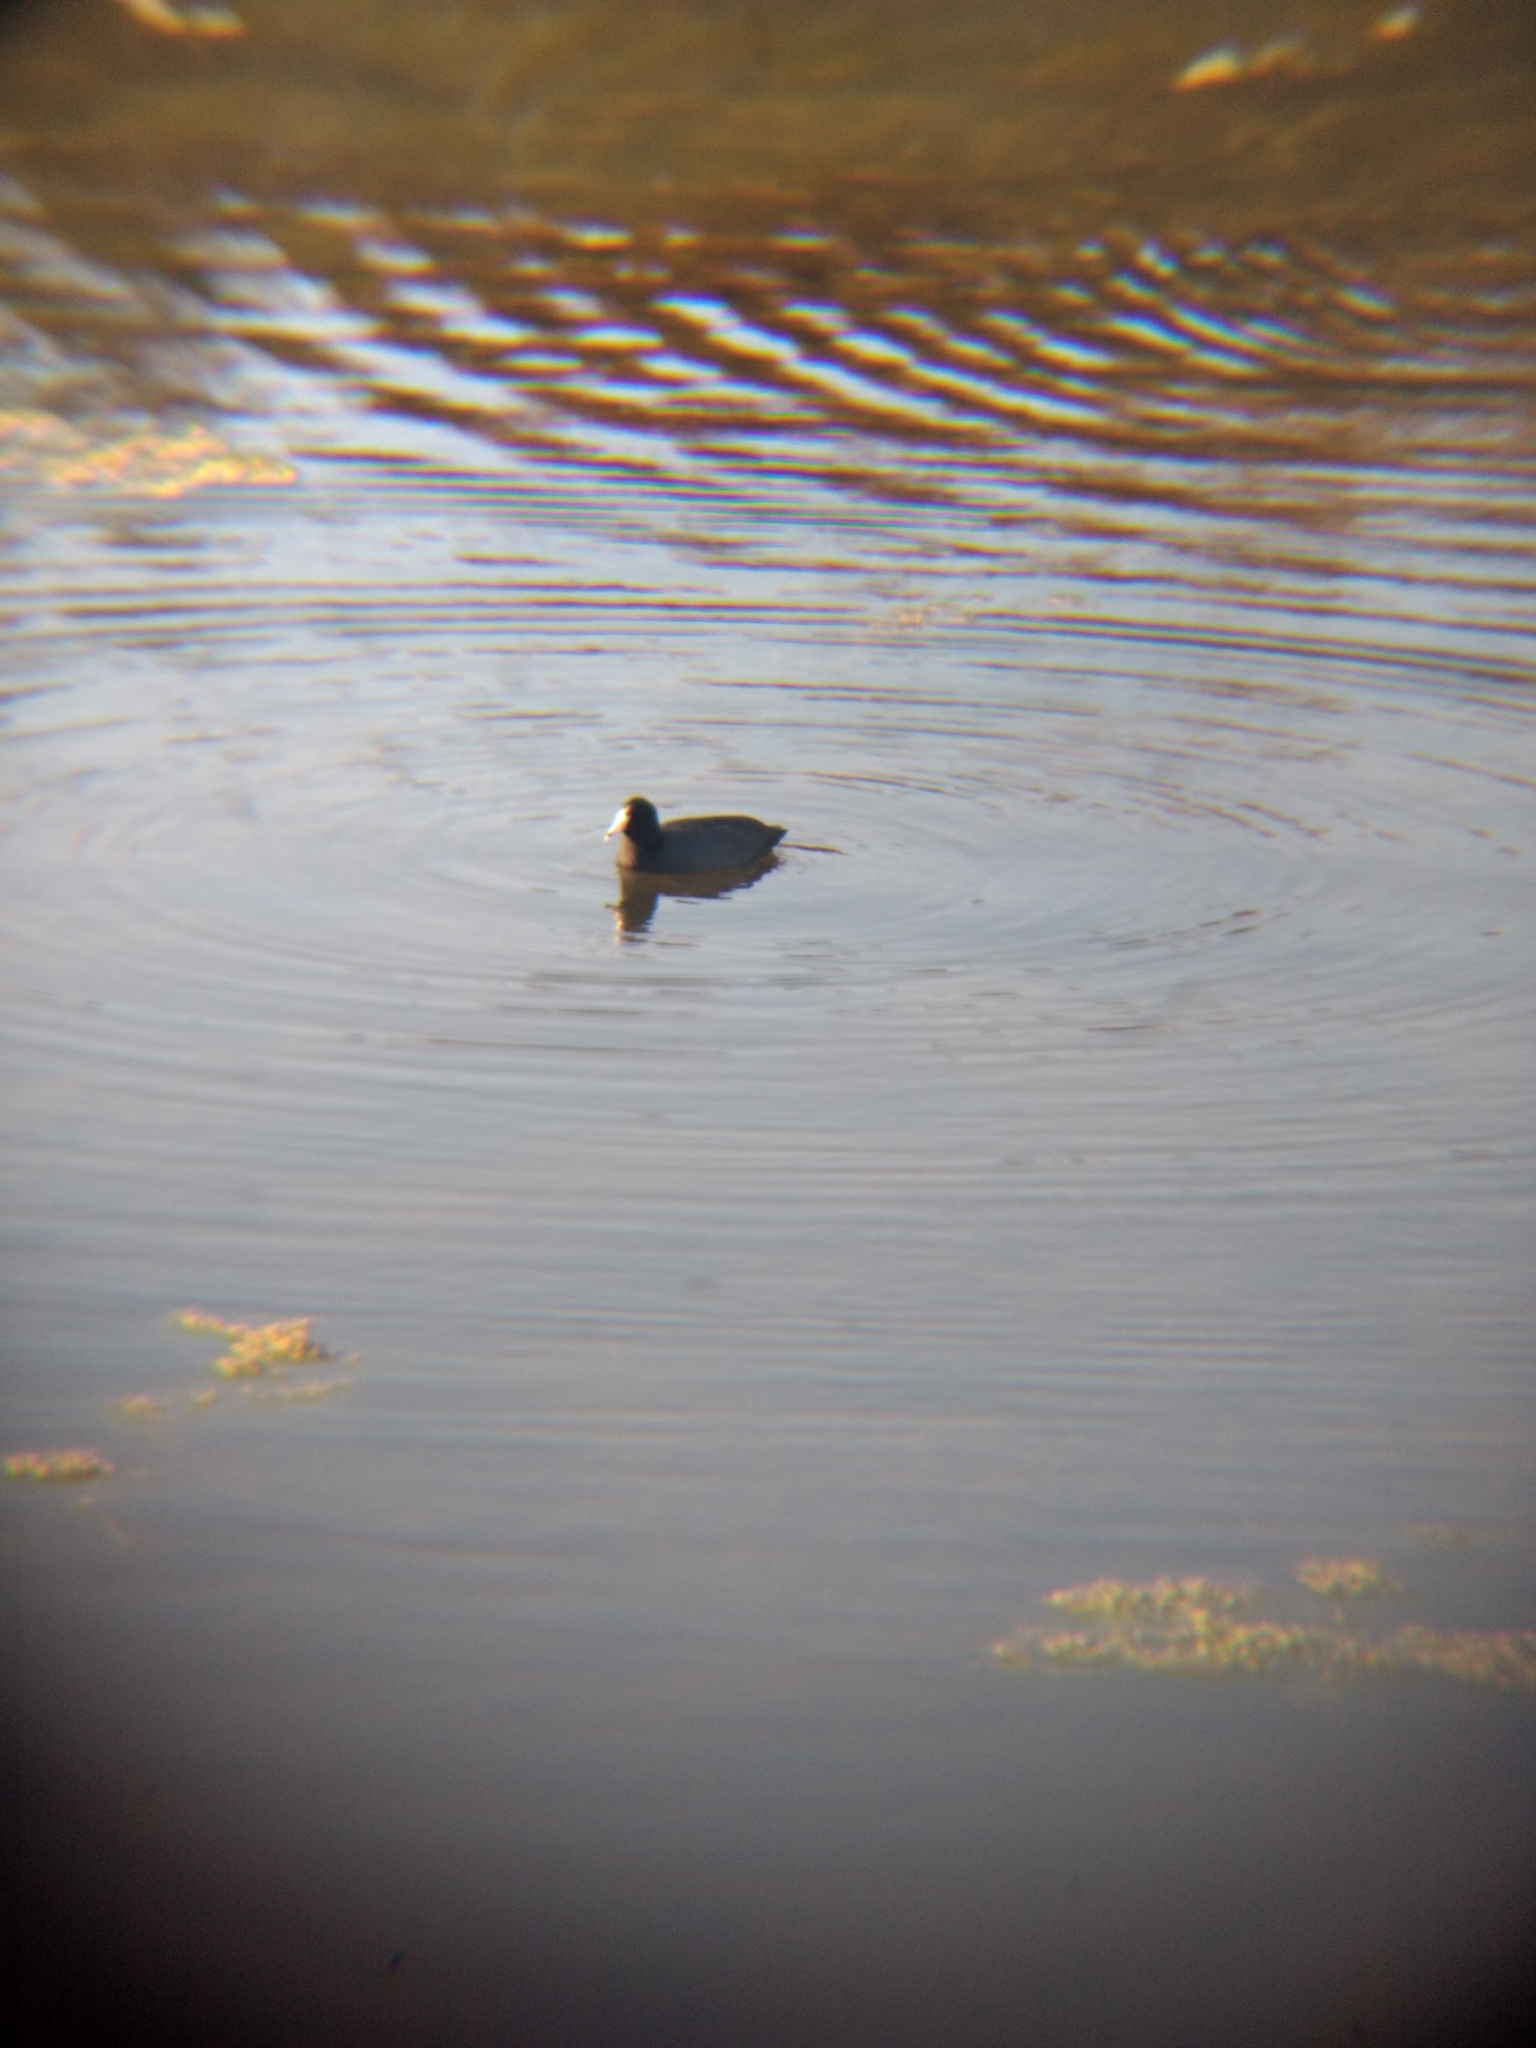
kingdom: Animalia
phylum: Chordata
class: Aves
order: Gruiformes
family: Rallidae
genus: Fulica
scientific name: Fulica americana
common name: American coot
